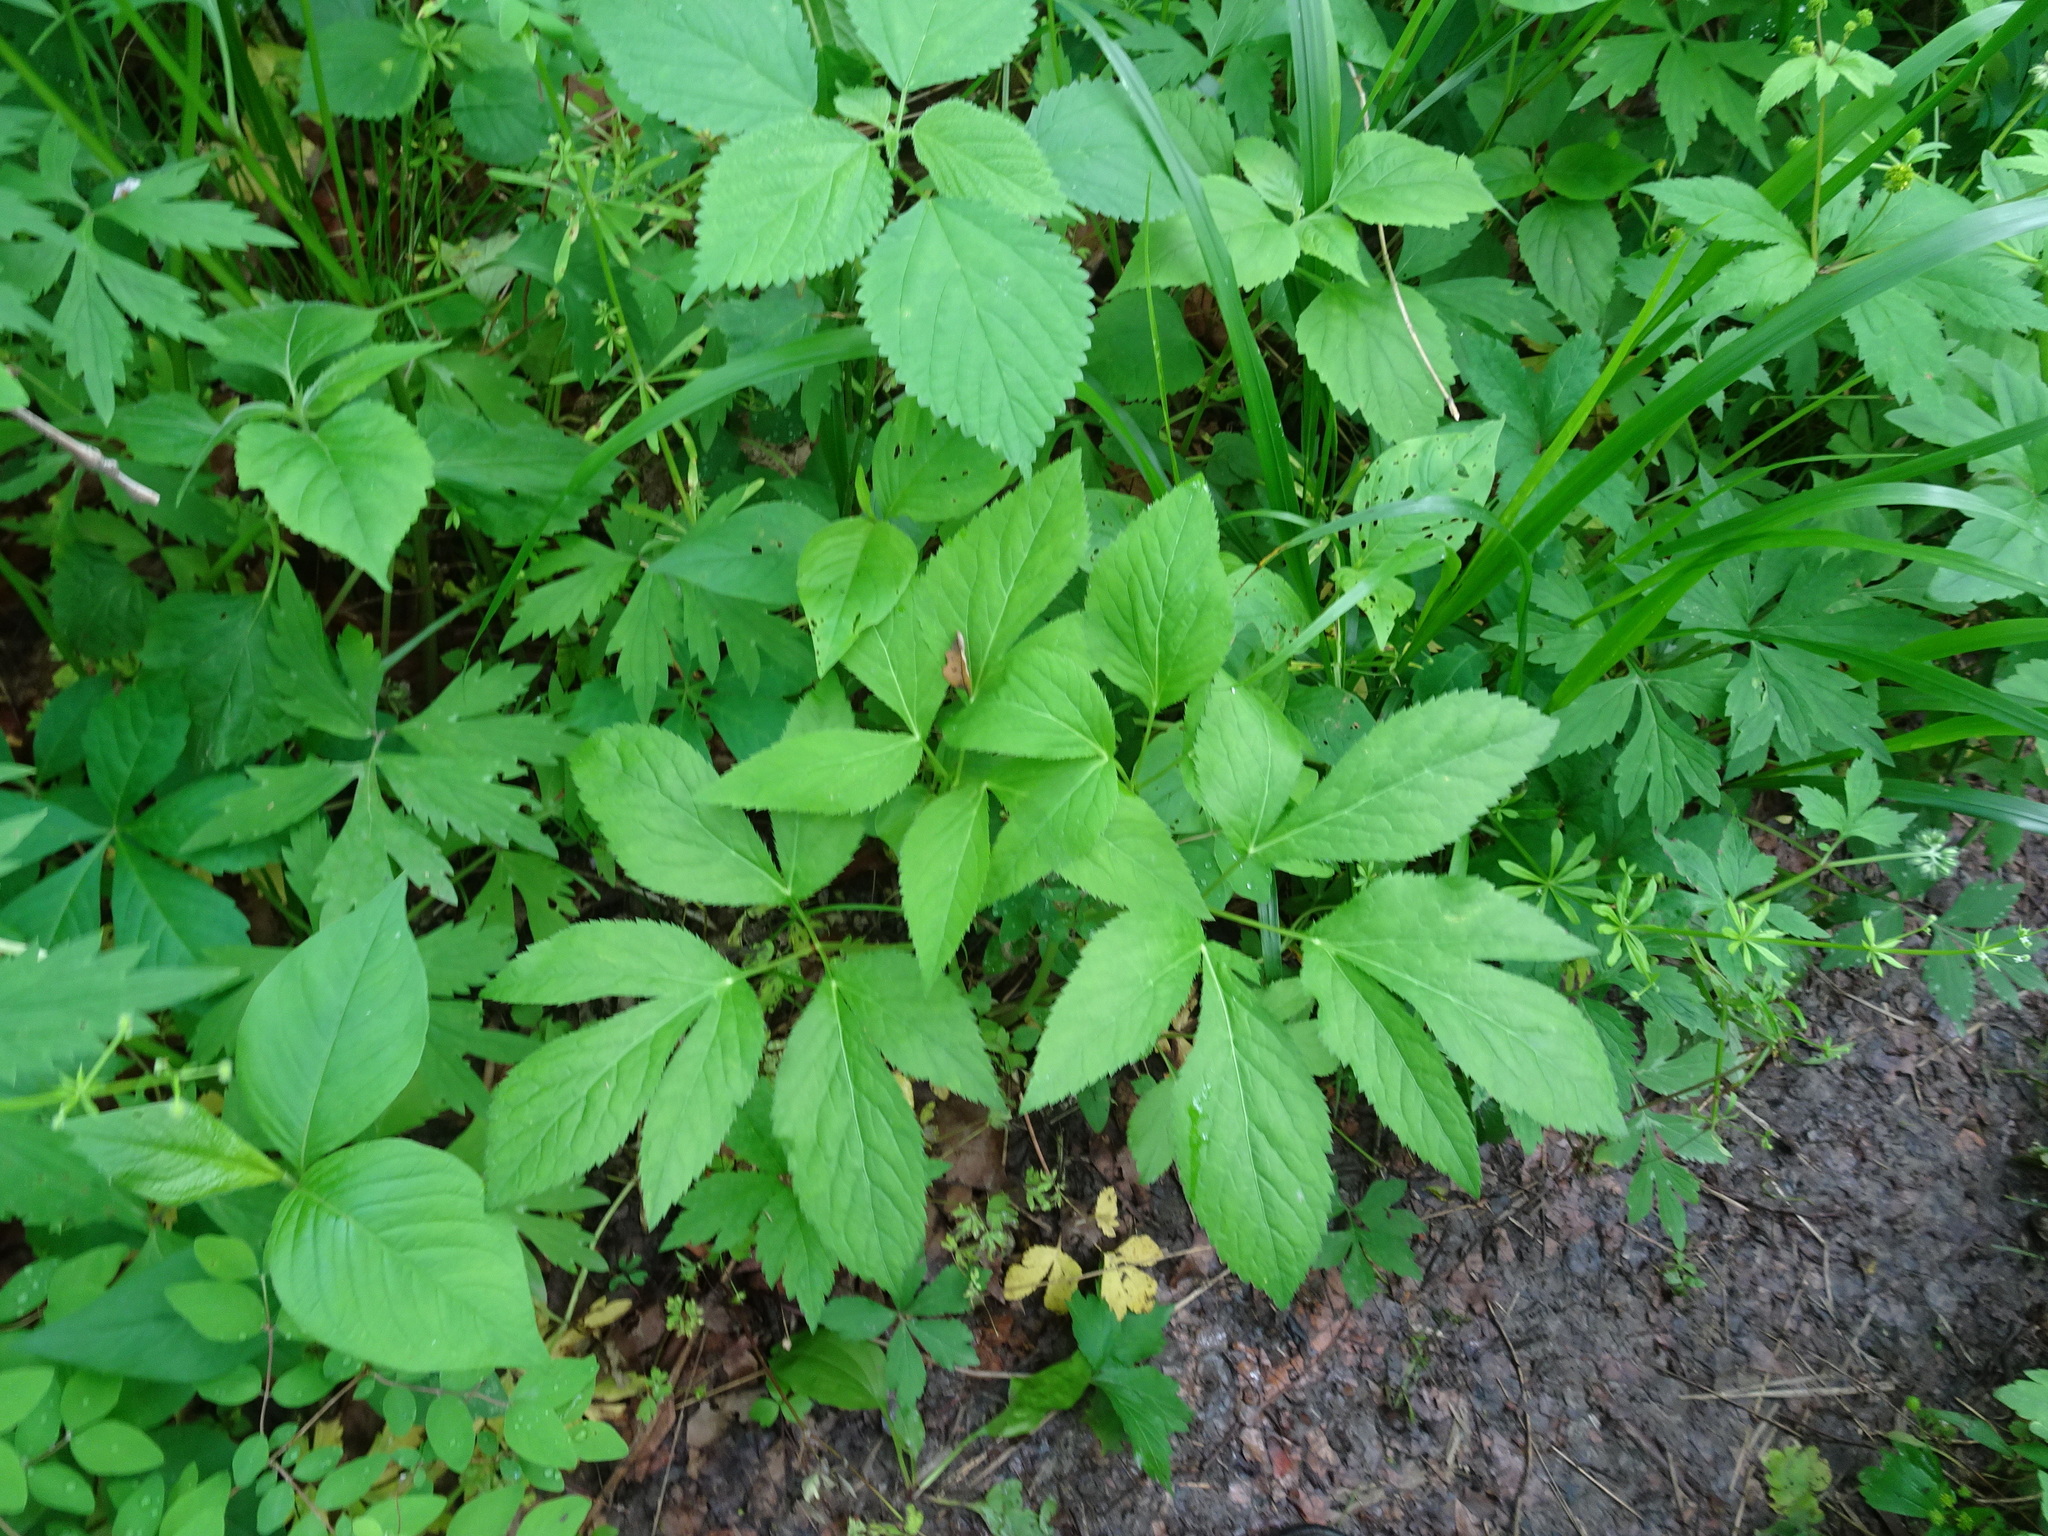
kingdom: Plantae
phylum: Tracheophyta
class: Magnoliopsida
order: Apiales
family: Apiaceae
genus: Cryptotaenia
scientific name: Cryptotaenia canadensis
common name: Honewort
